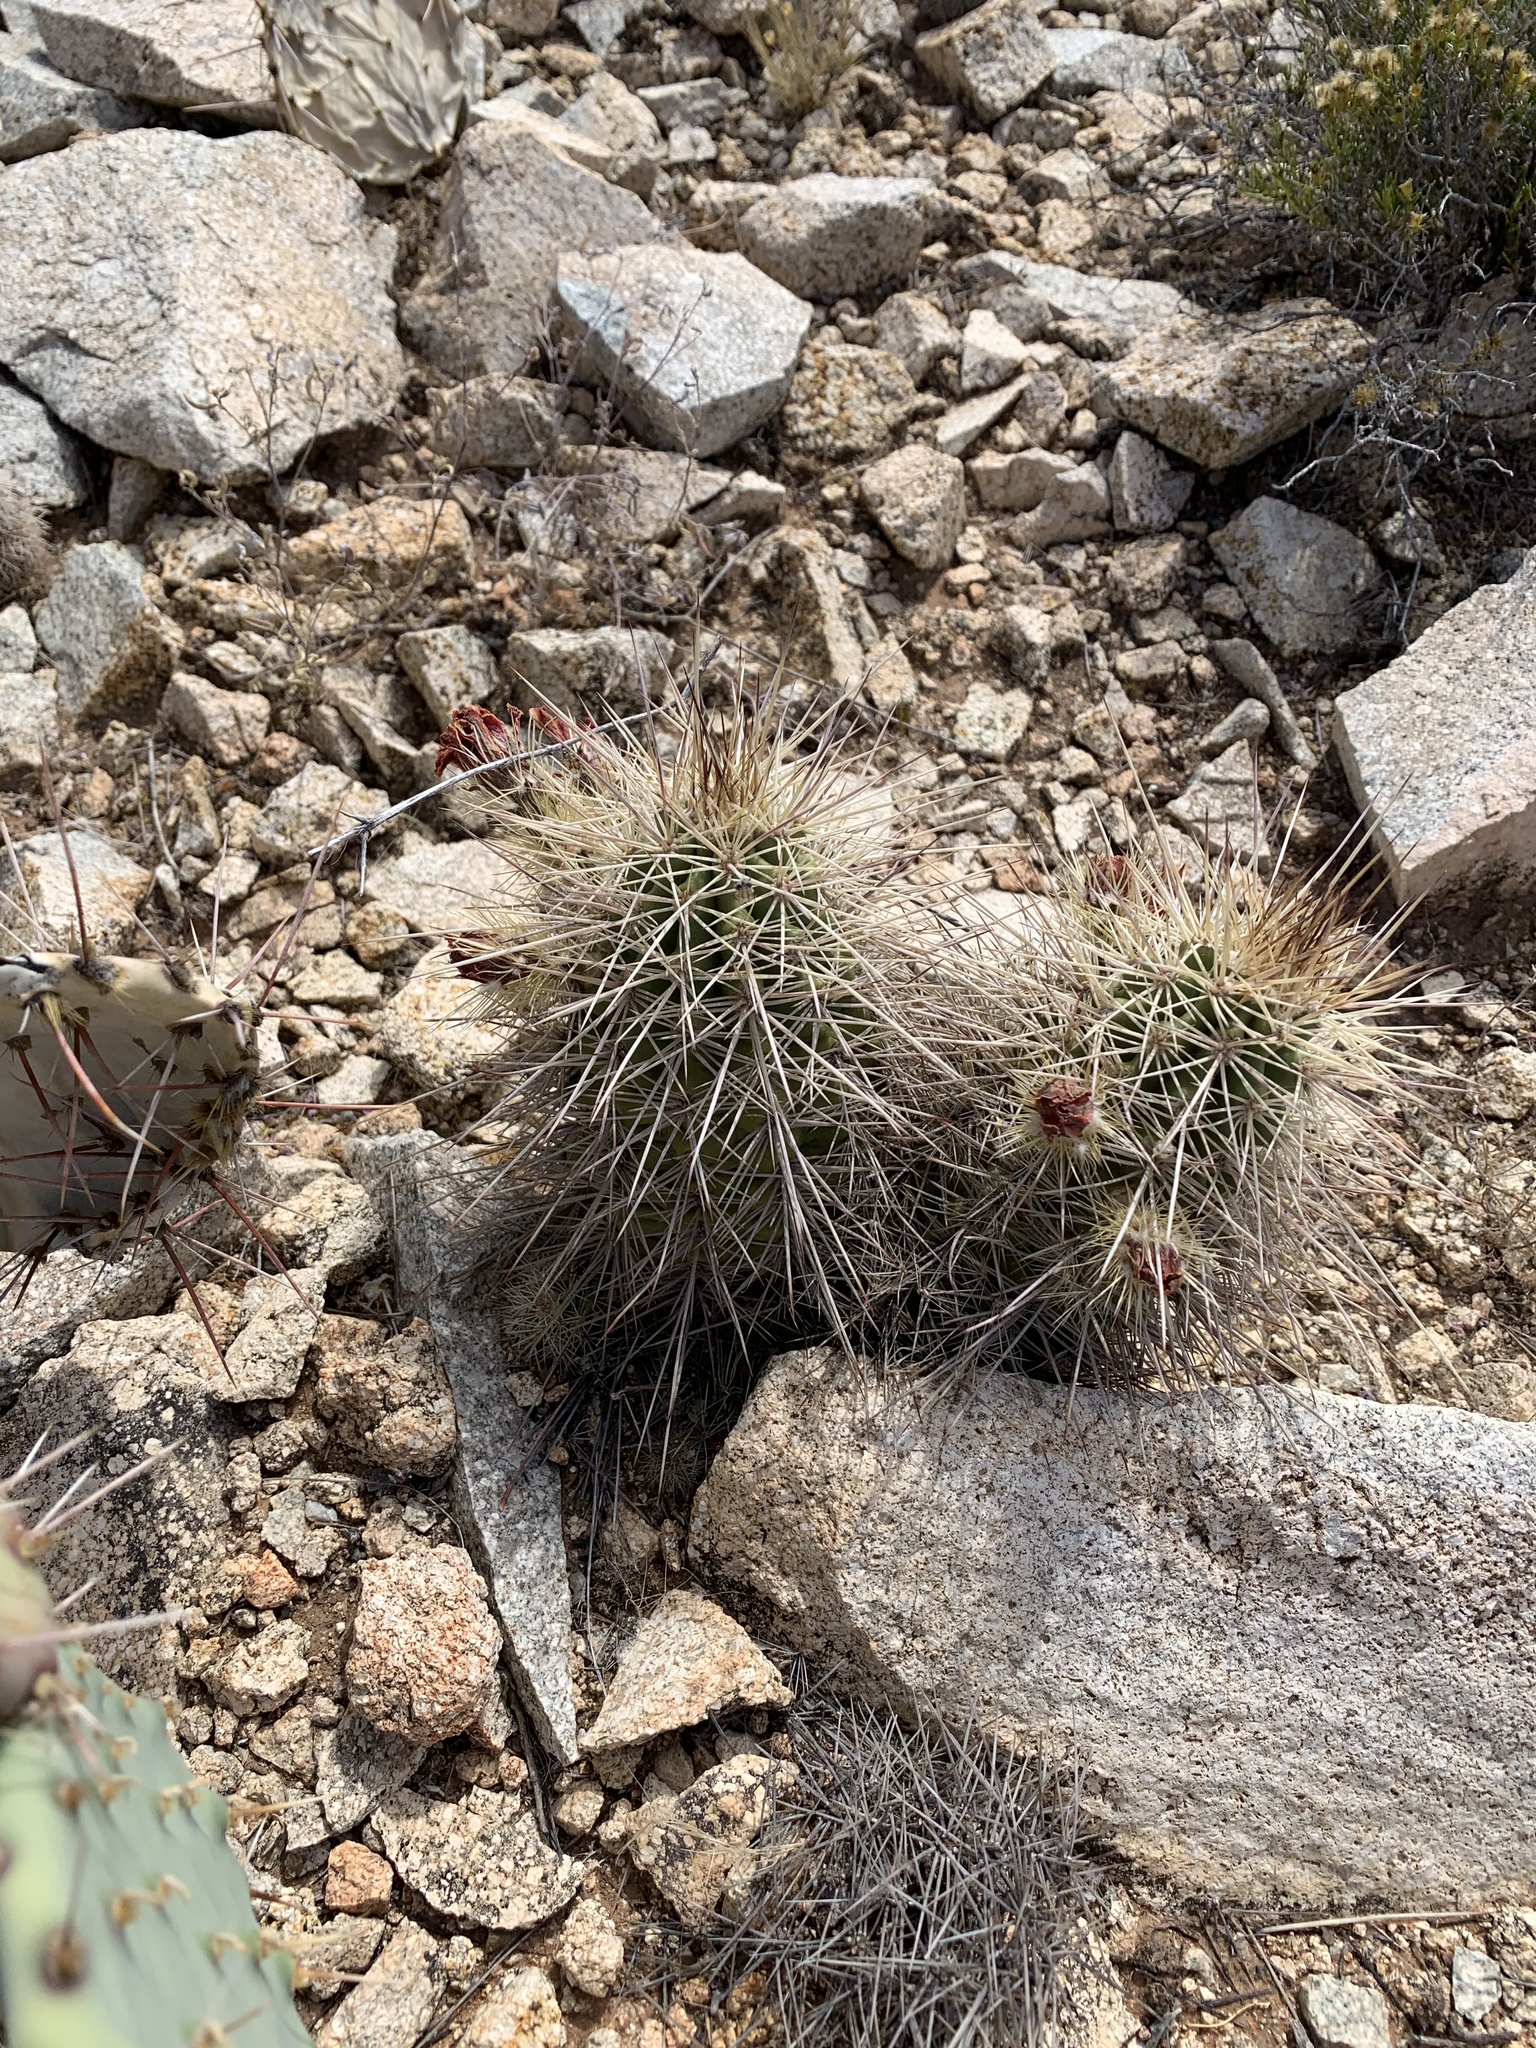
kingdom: Plantae
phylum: Tracheophyta
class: Magnoliopsida
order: Caryophyllales
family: Cactaceae
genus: Echinocereus
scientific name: Echinocereus coccineus
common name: Scarlet hedgehog cactus
